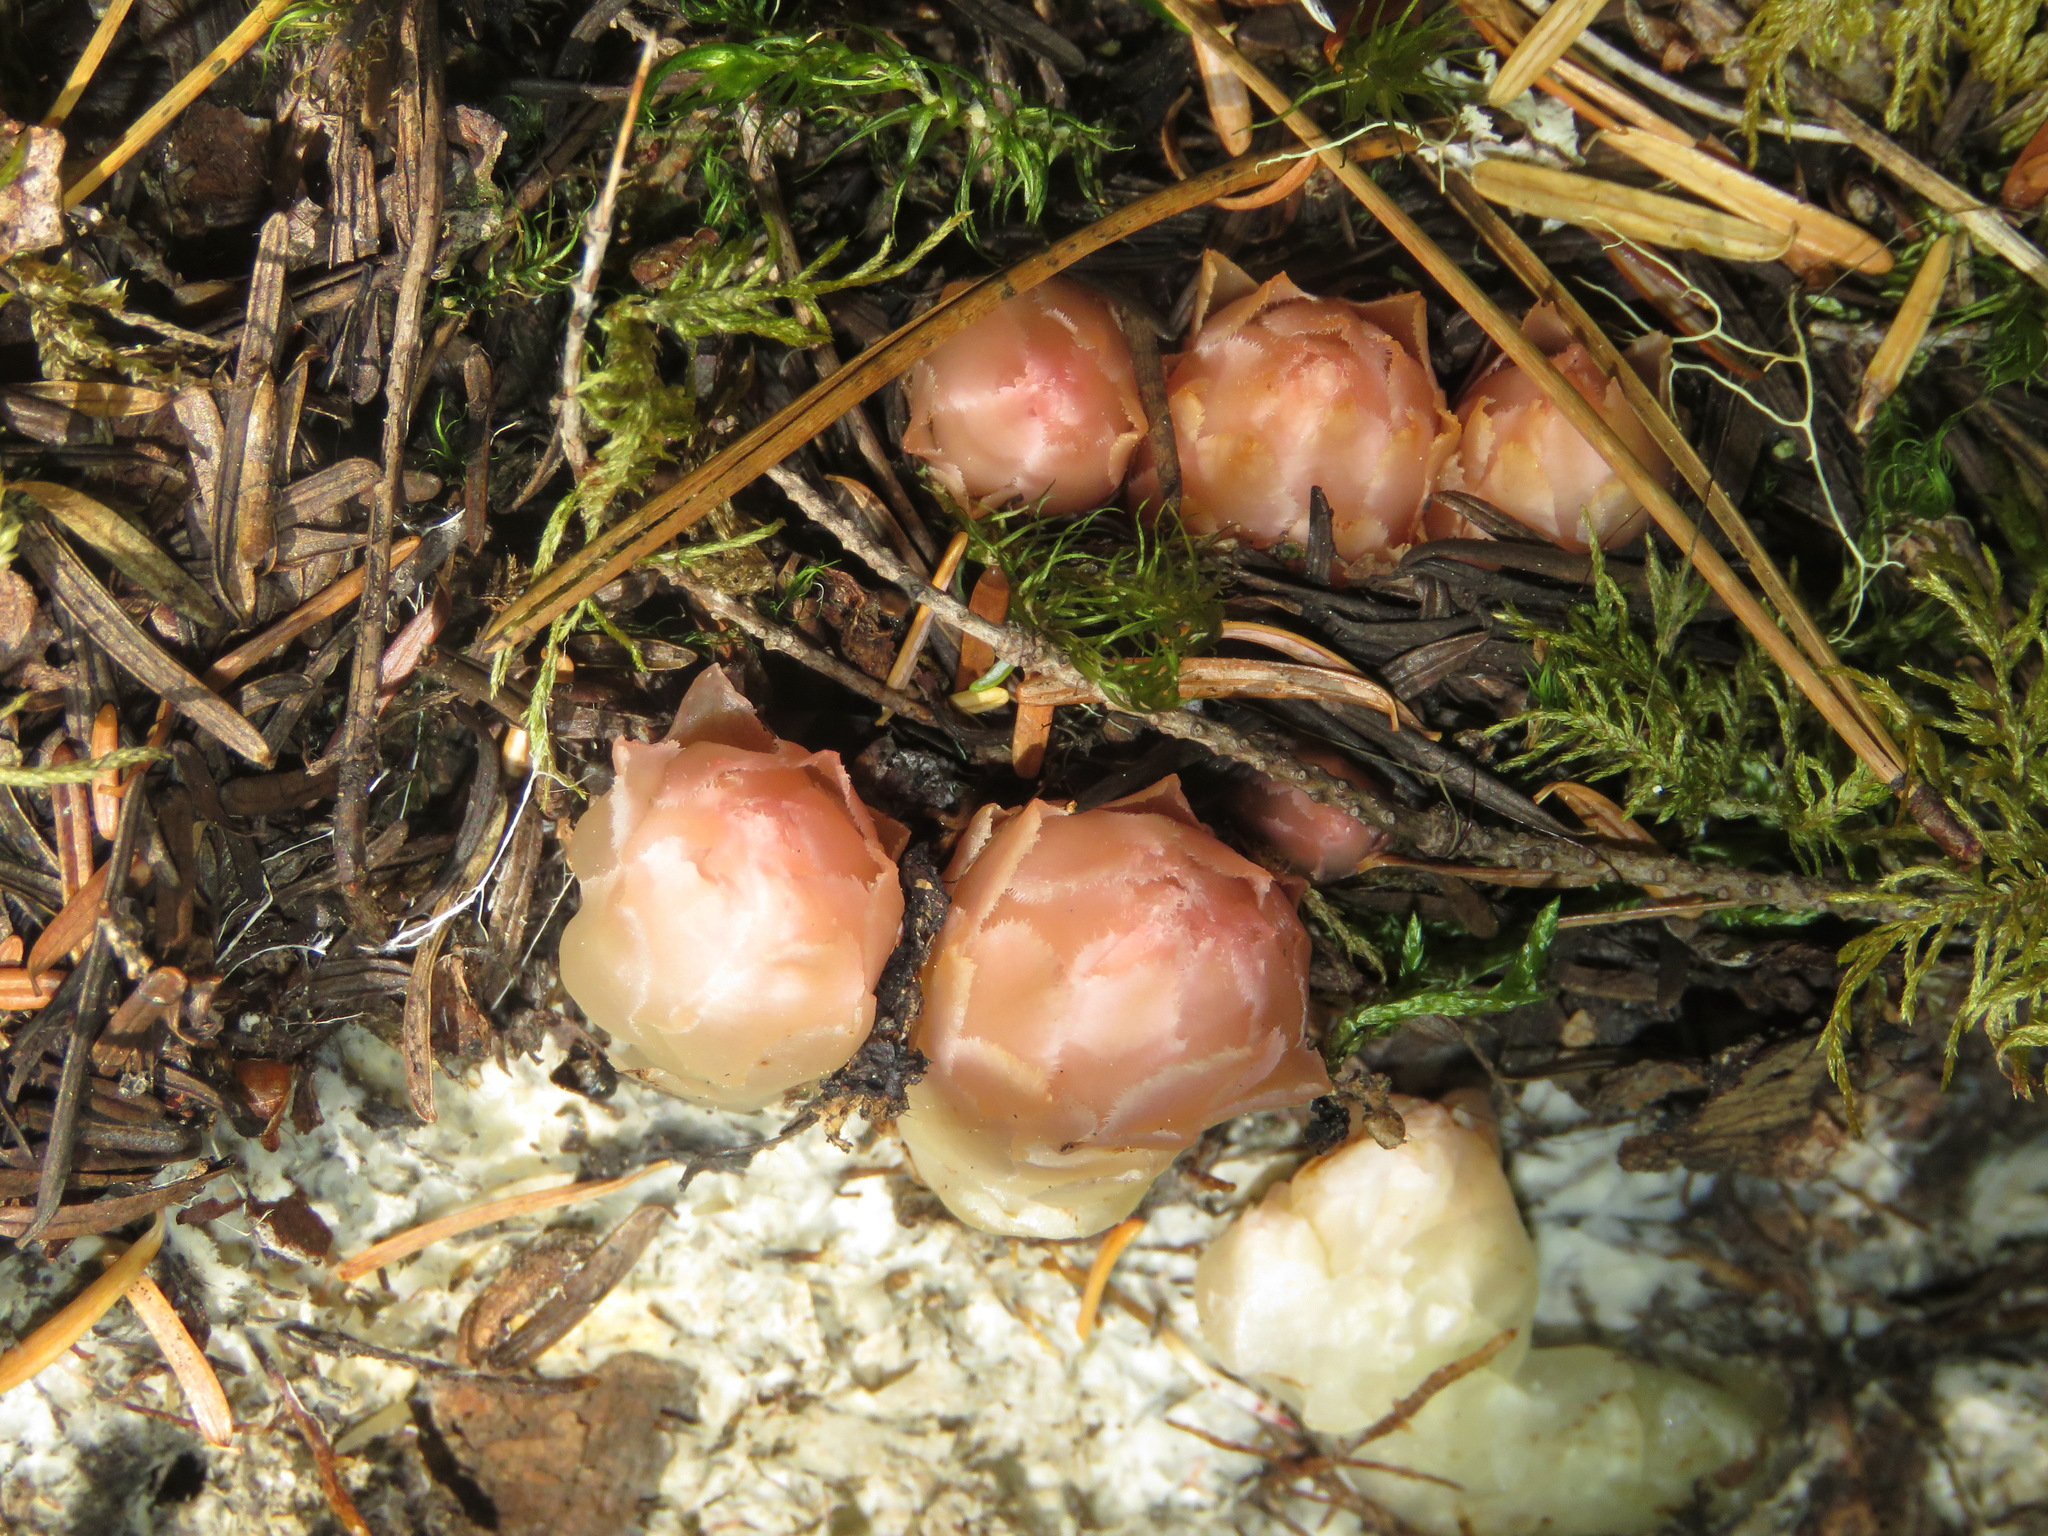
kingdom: Plantae
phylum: Tracheophyta
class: Magnoliopsida
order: Ericales
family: Ericaceae
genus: Hemitomes
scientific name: Hemitomes congestum
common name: Cone plant
